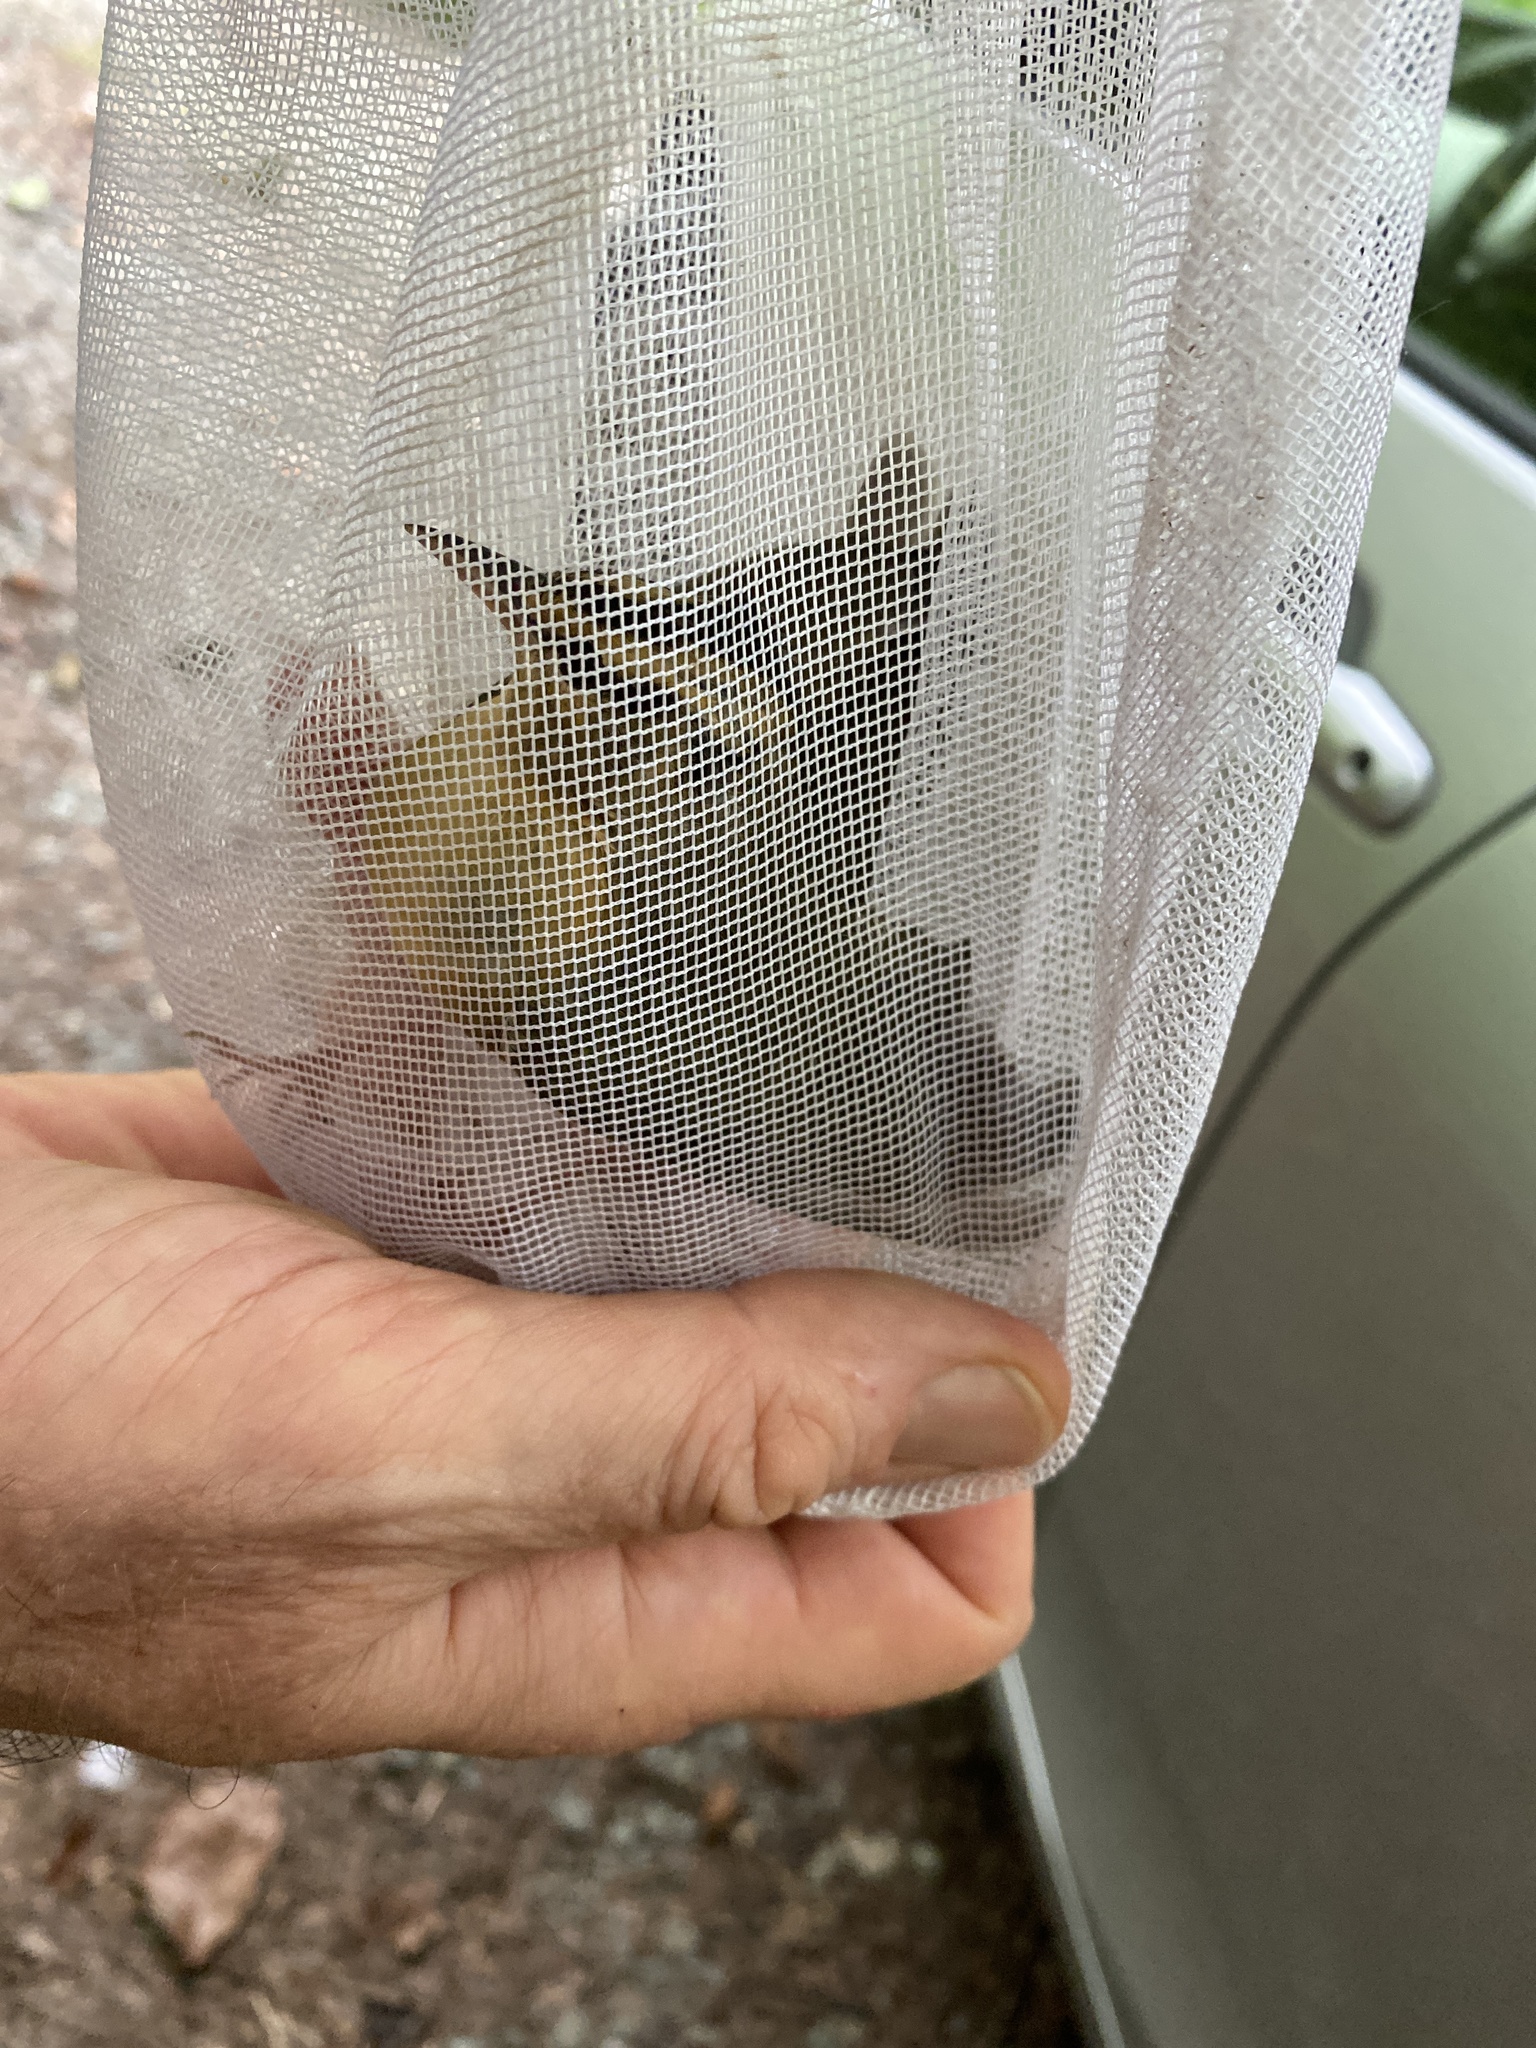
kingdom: Animalia
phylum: Chordata
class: Aves
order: Passeriformes
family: Parulidae
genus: Helmitheros
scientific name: Helmitheros vermivorum
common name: Worm-eating warbler
